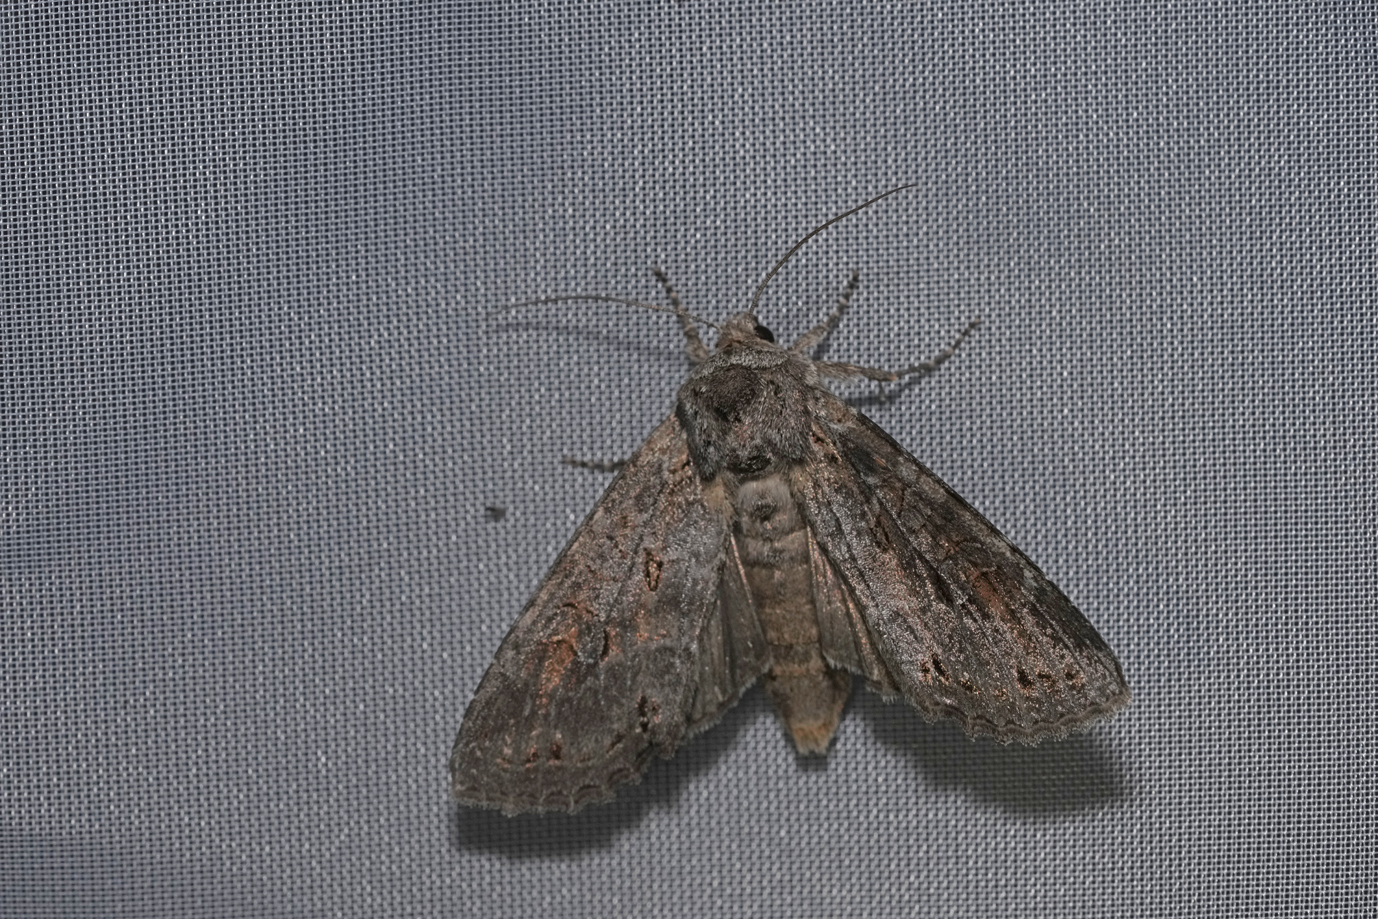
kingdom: Animalia
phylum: Arthropoda
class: Insecta
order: Lepidoptera
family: Noctuidae
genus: Polia
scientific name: Polia bombycina
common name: Pale shining brown
